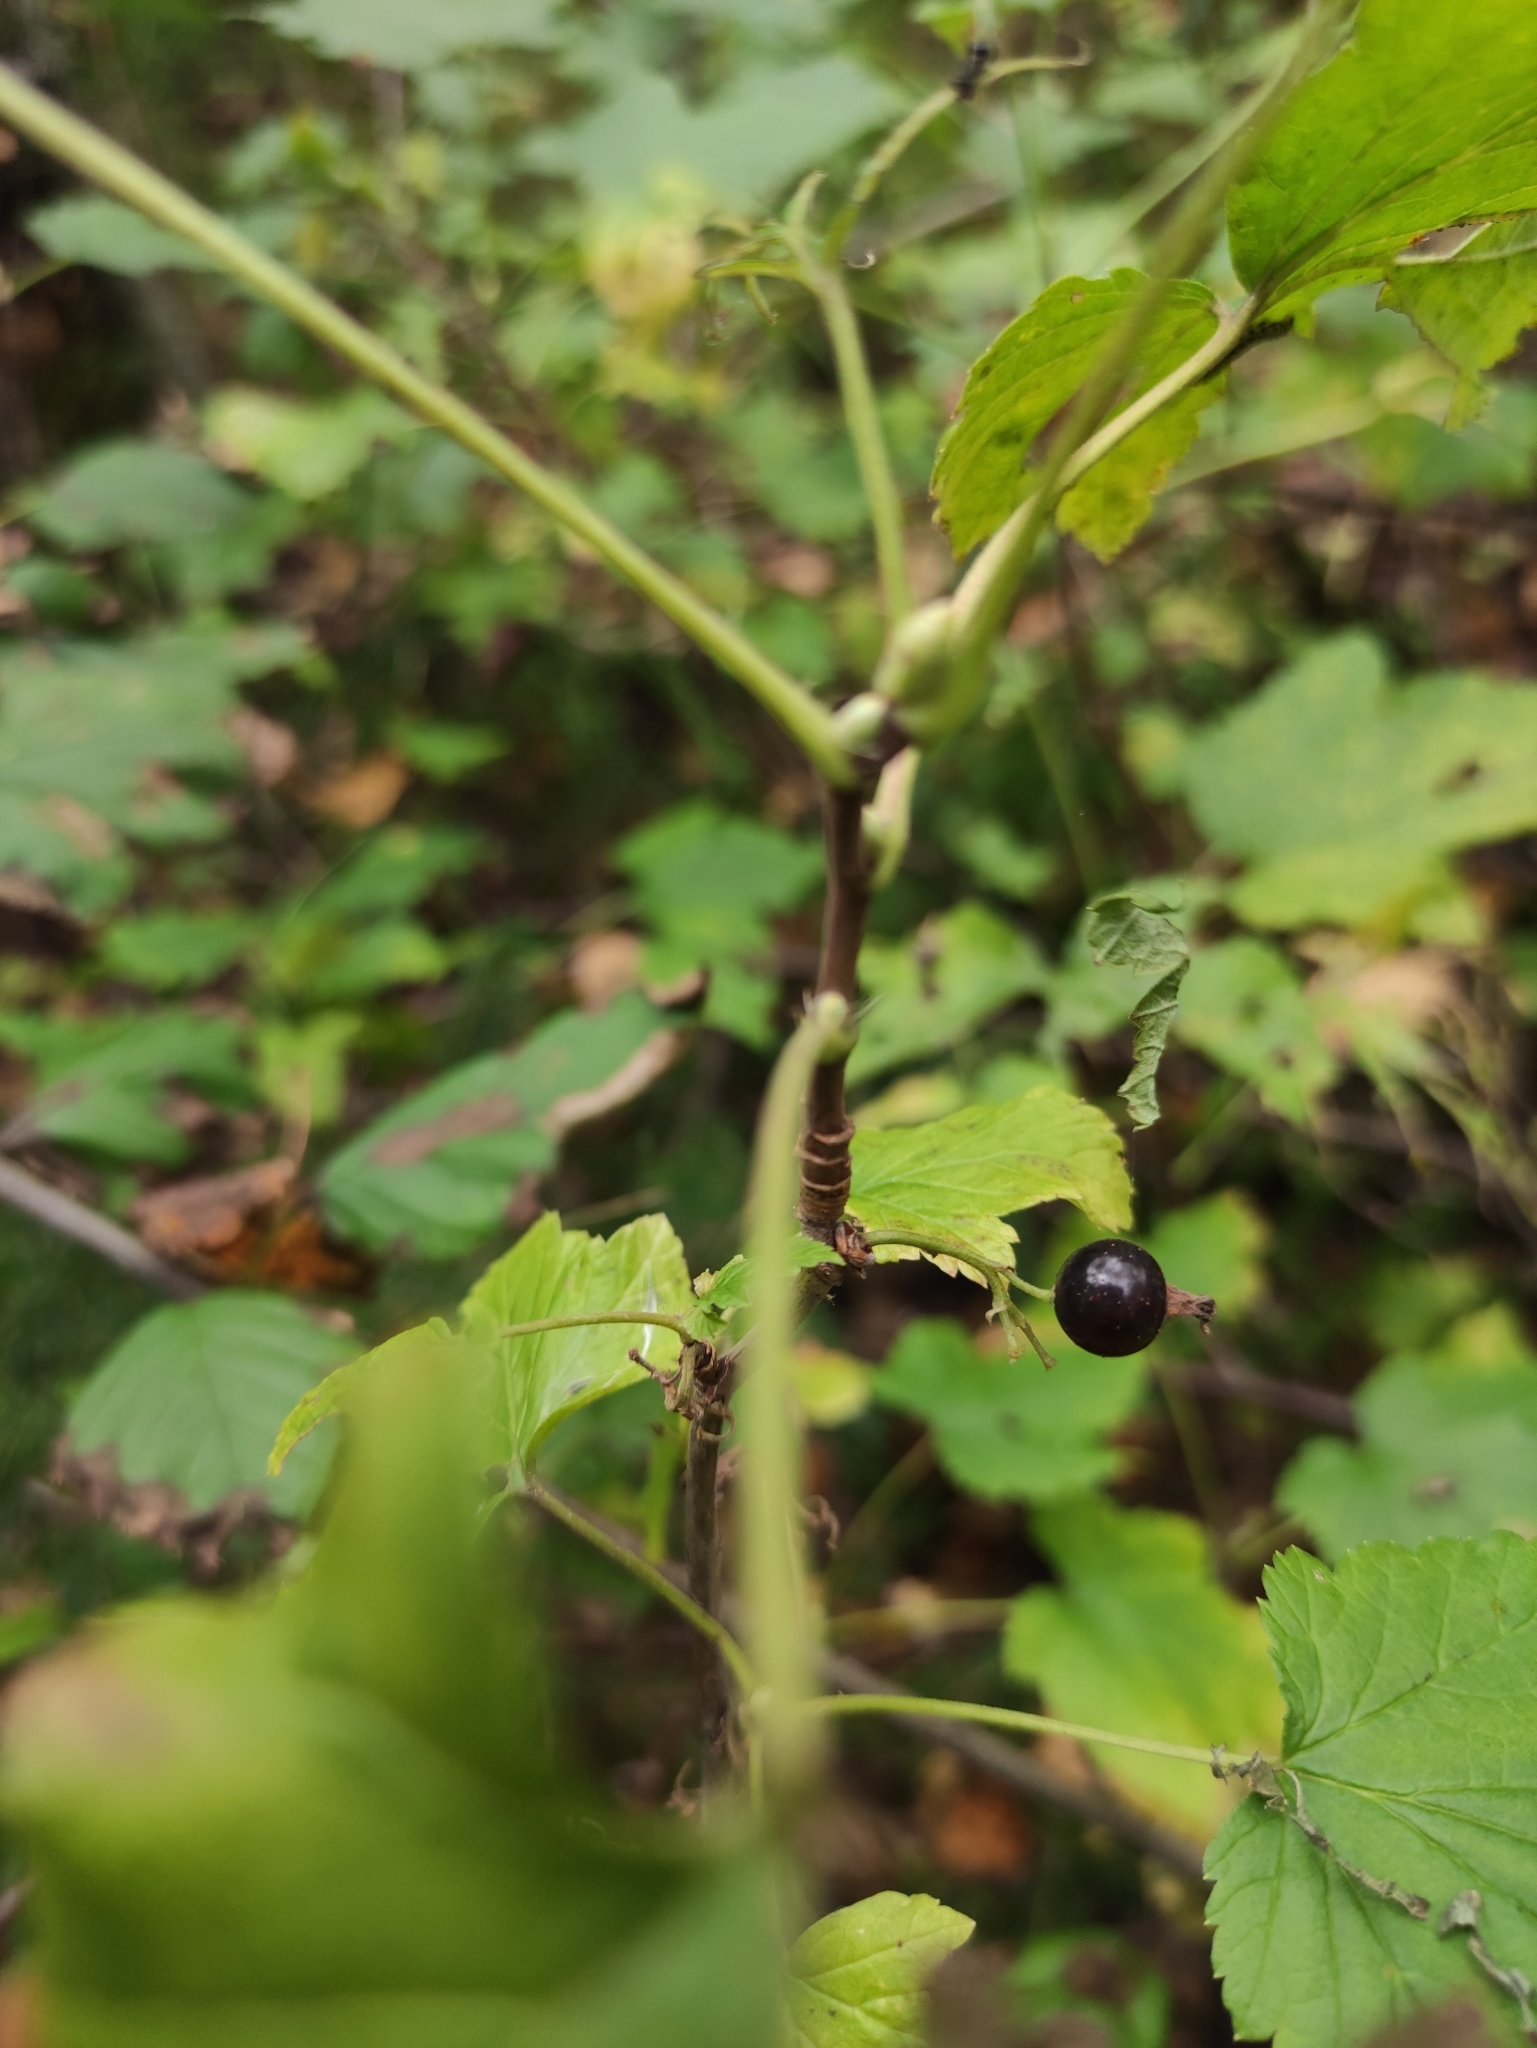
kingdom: Plantae
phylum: Tracheophyta
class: Magnoliopsida
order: Saxifragales
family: Grossulariaceae
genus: Ribes
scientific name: Ribes nigrum
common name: Black currant
